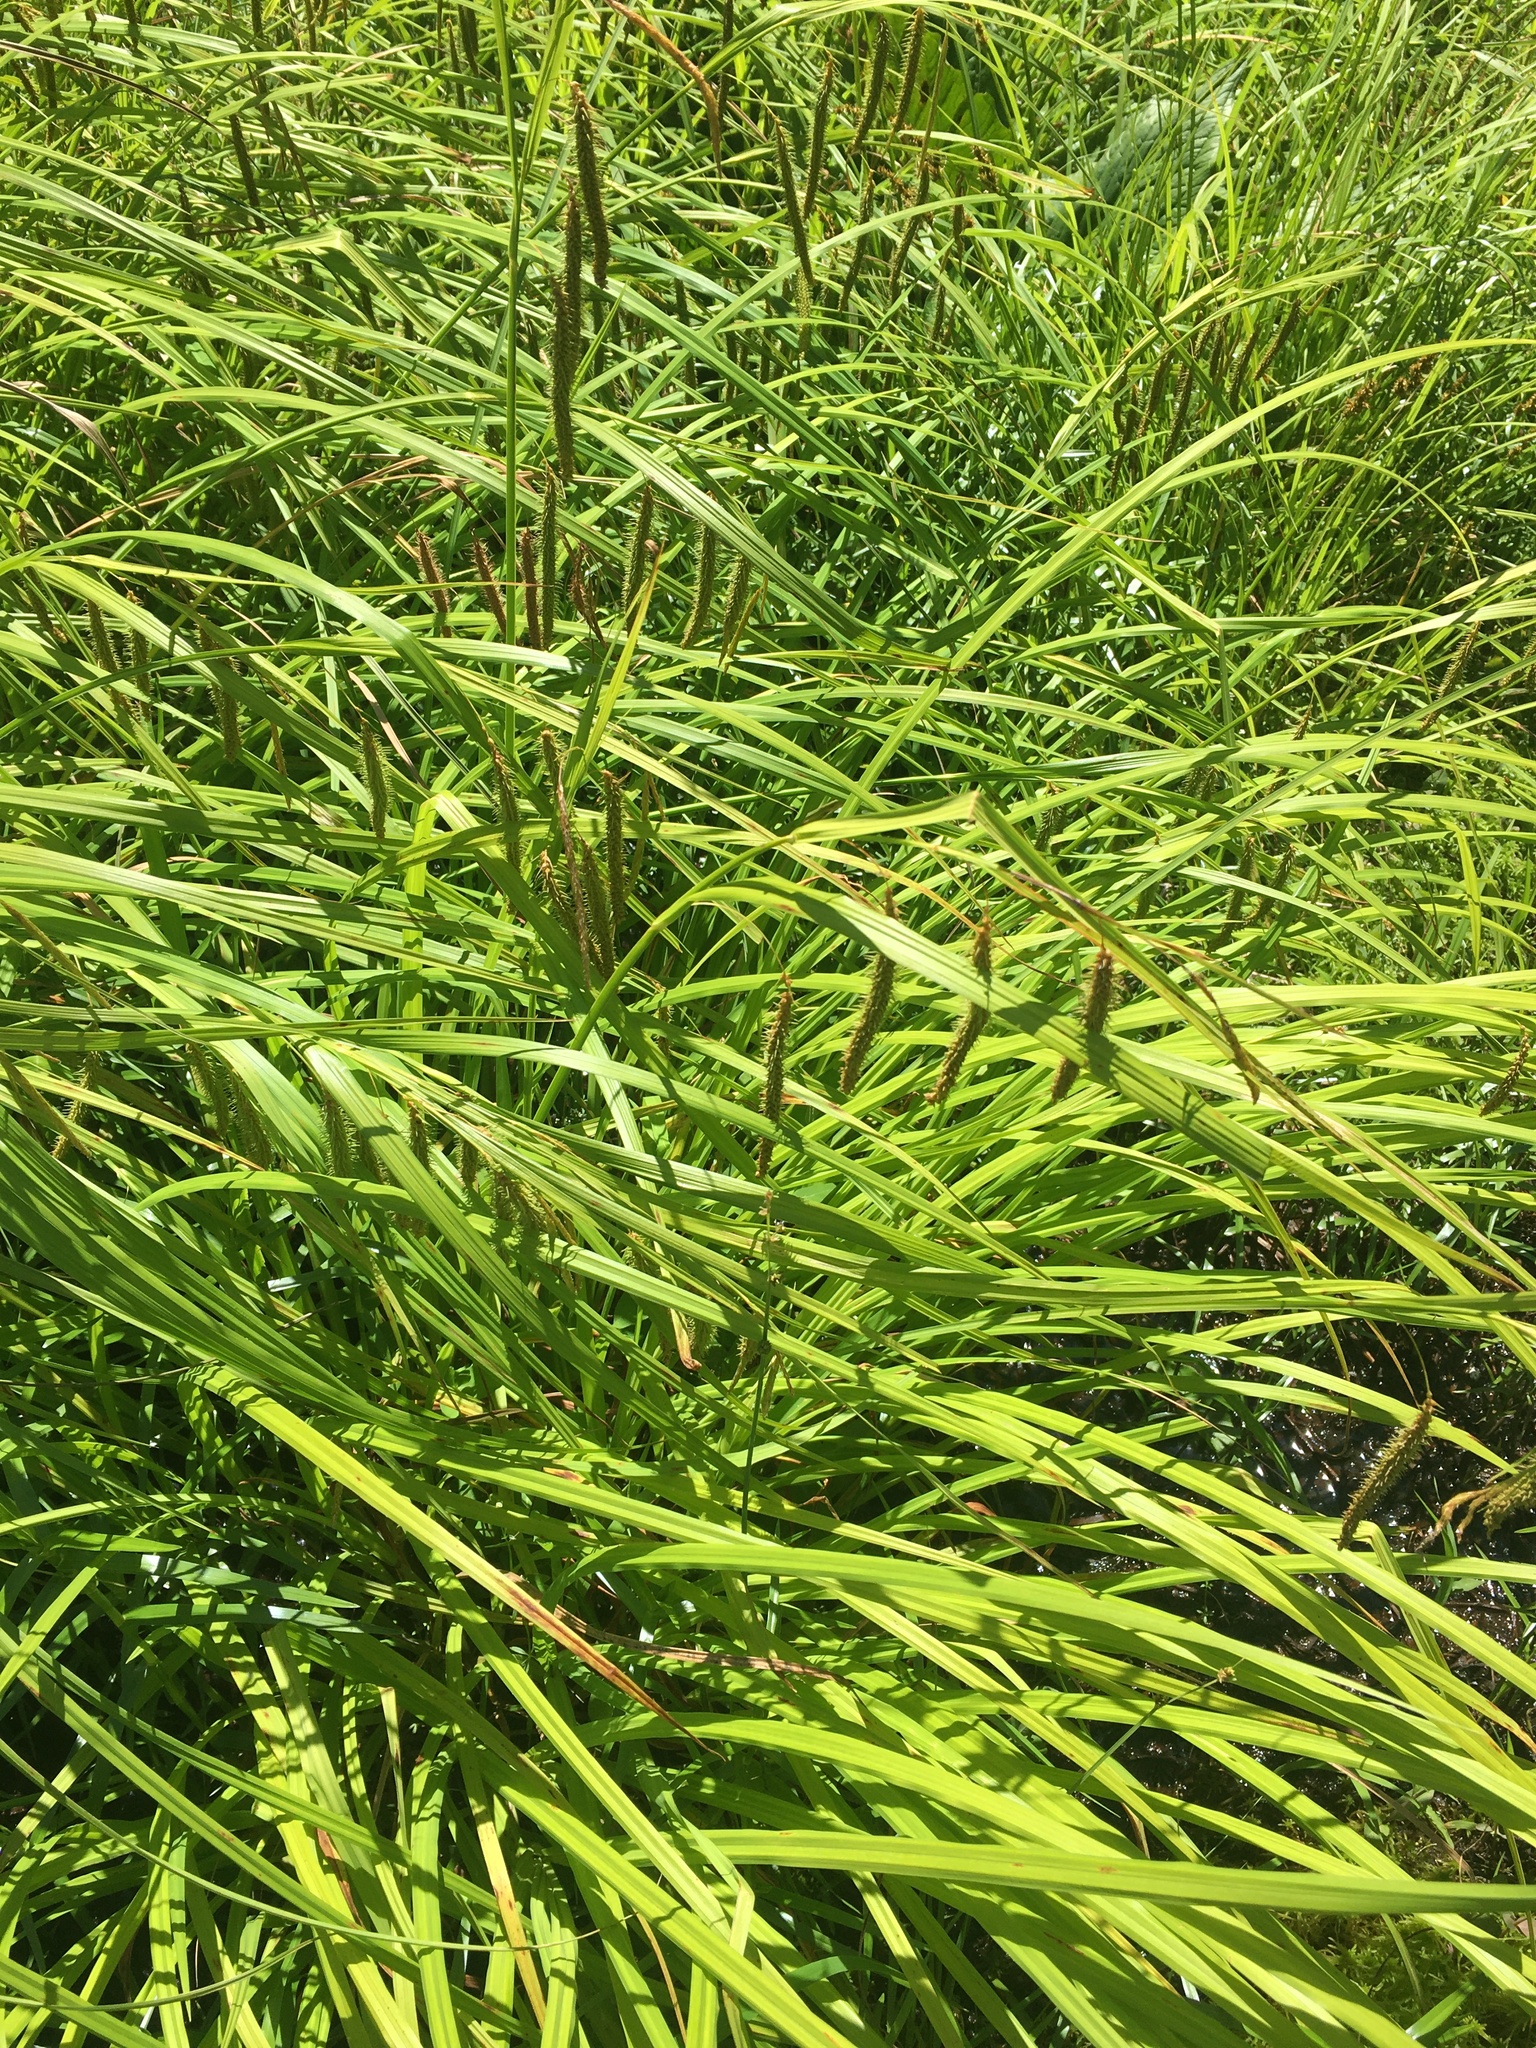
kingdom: Plantae
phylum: Tracheophyta
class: Liliopsida
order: Poales
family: Cyperaceae
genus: Carex
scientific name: Carex crinita
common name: Fringed sedge
